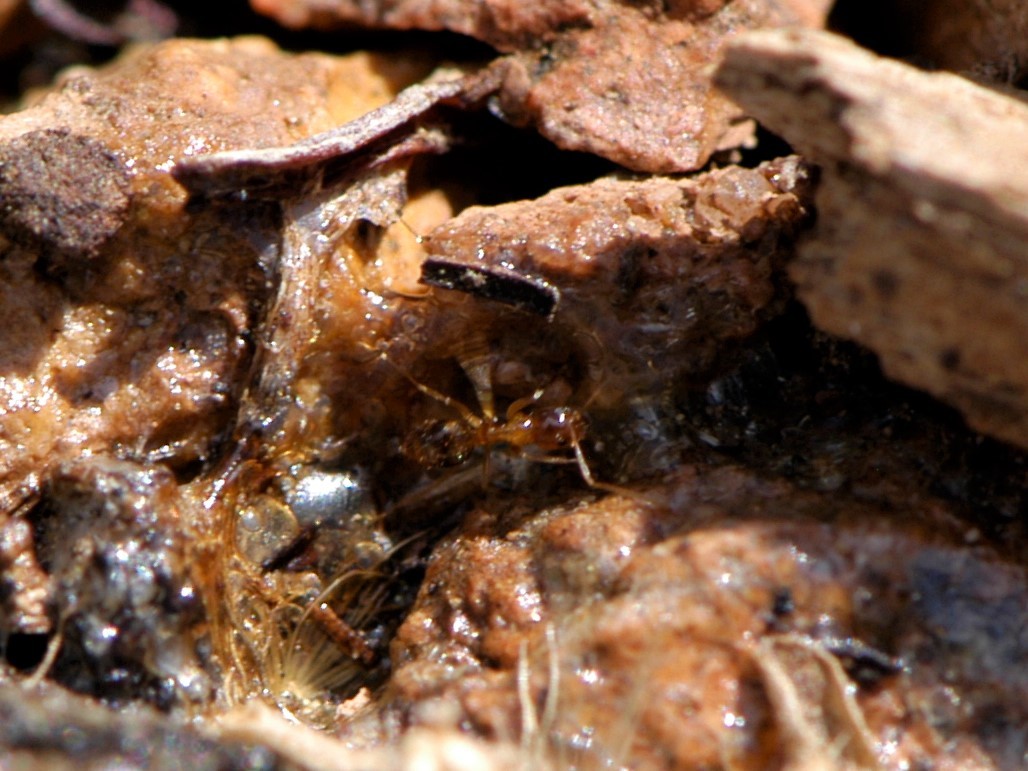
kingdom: Animalia
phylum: Arthropoda
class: Insecta
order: Hymenoptera
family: Formicidae
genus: Nylanderia
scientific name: Nylanderia
